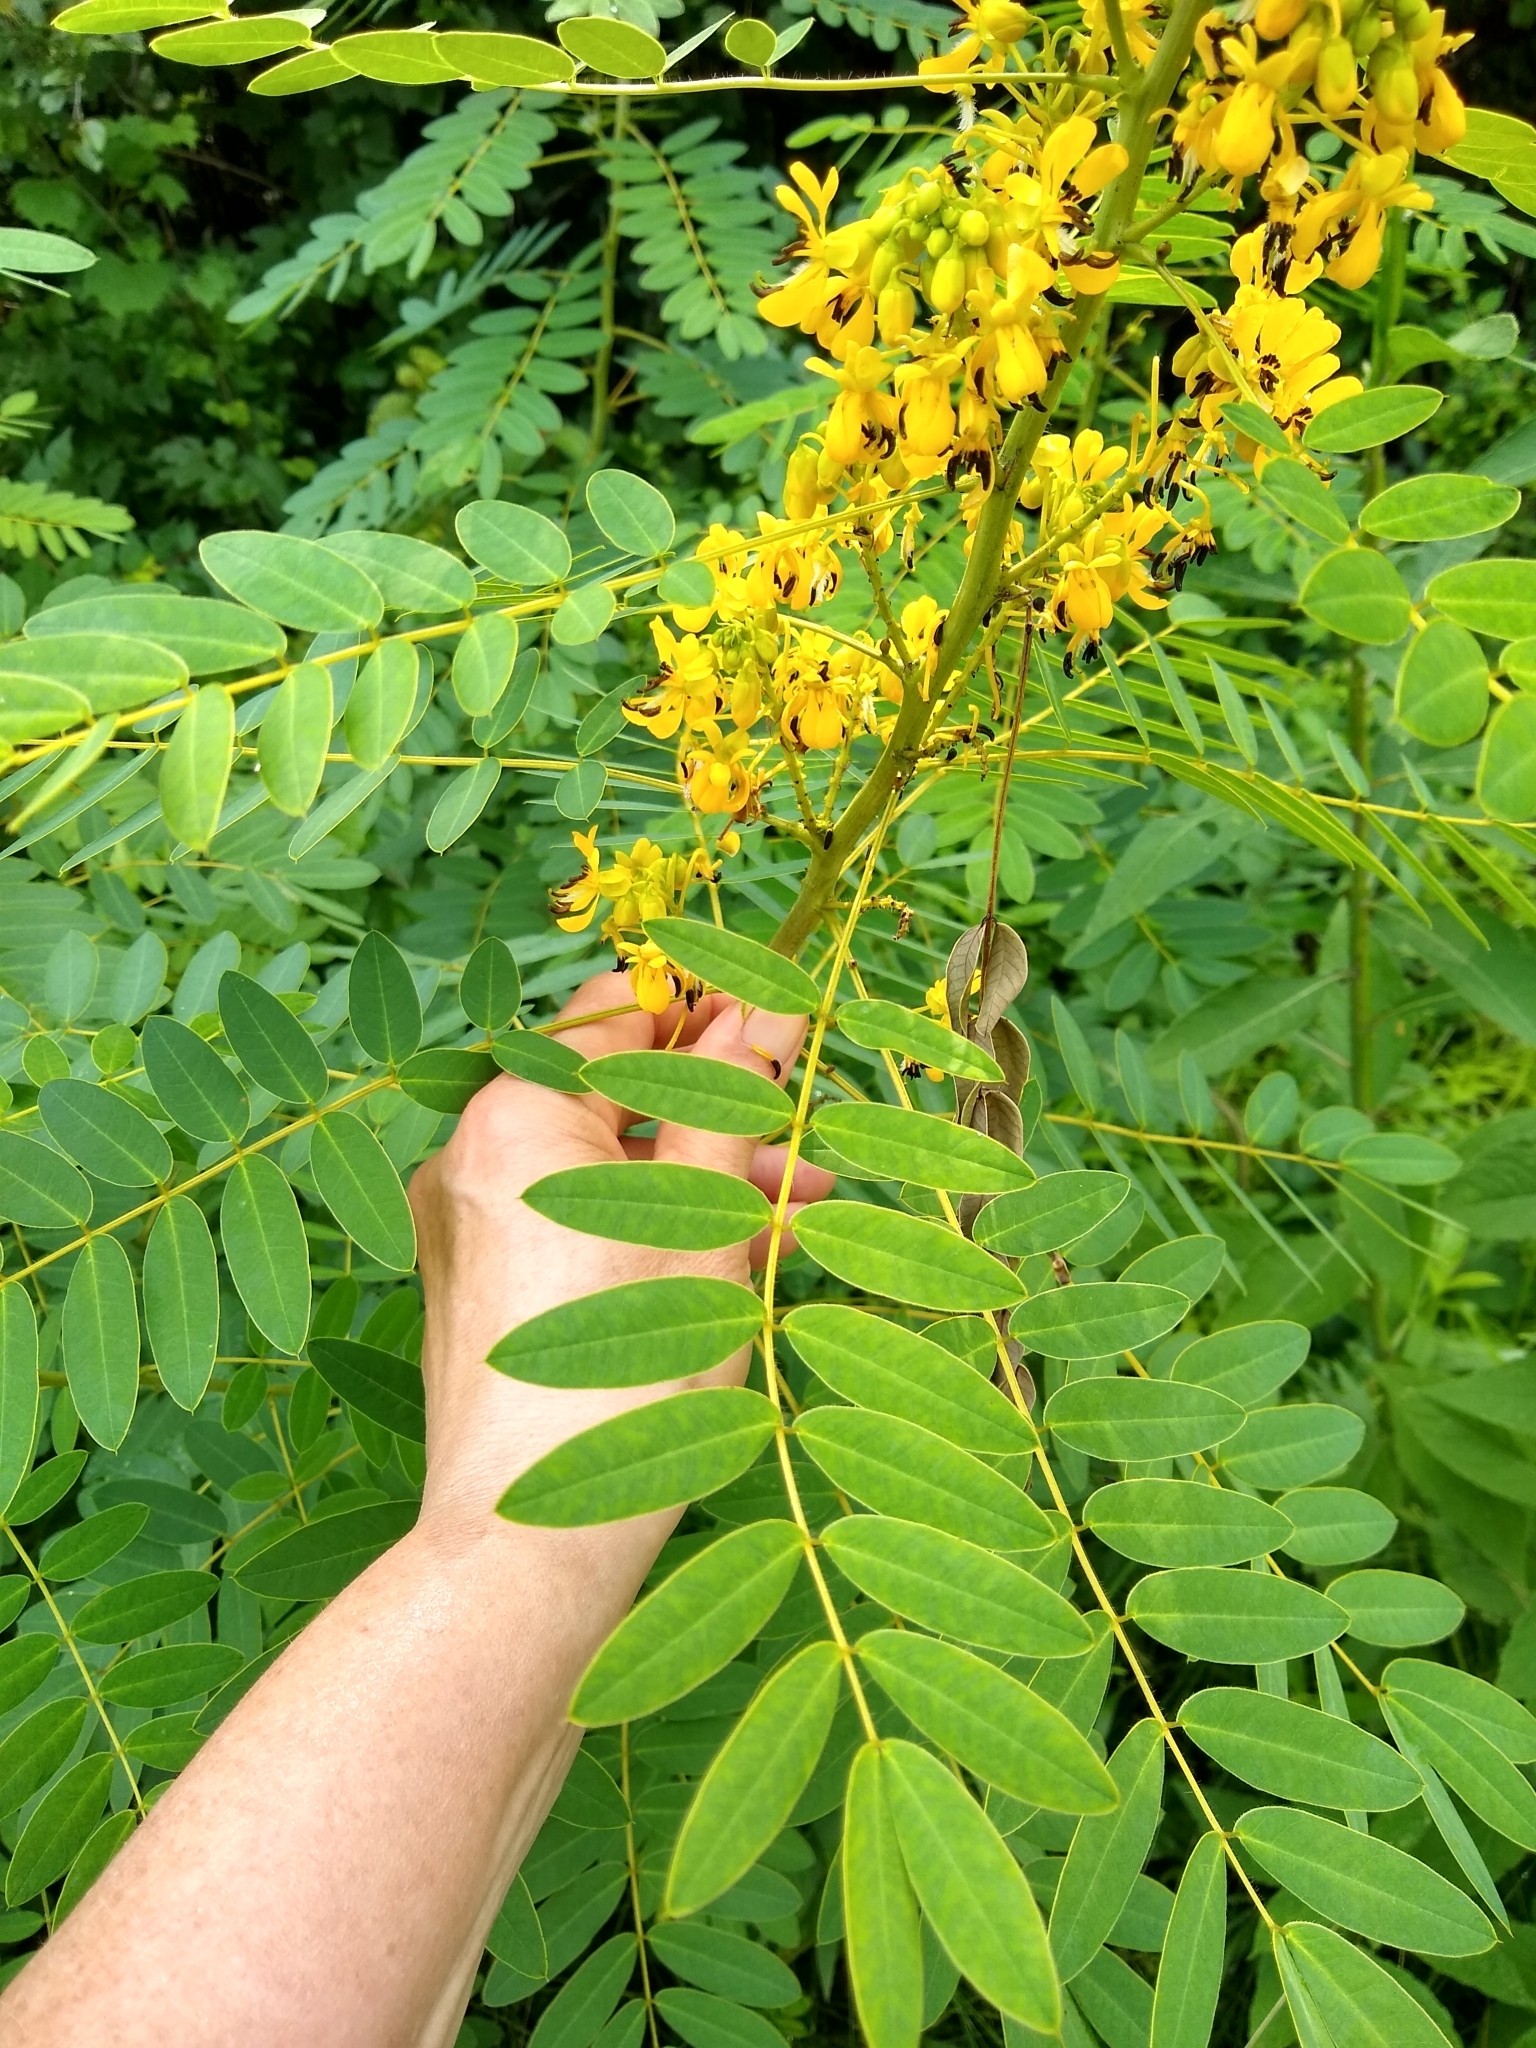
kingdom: Plantae
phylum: Tracheophyta
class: Magnoliopsida
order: Fabales
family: Fabaceae
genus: Senna
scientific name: Senna hebecarpa
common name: Wild senna
